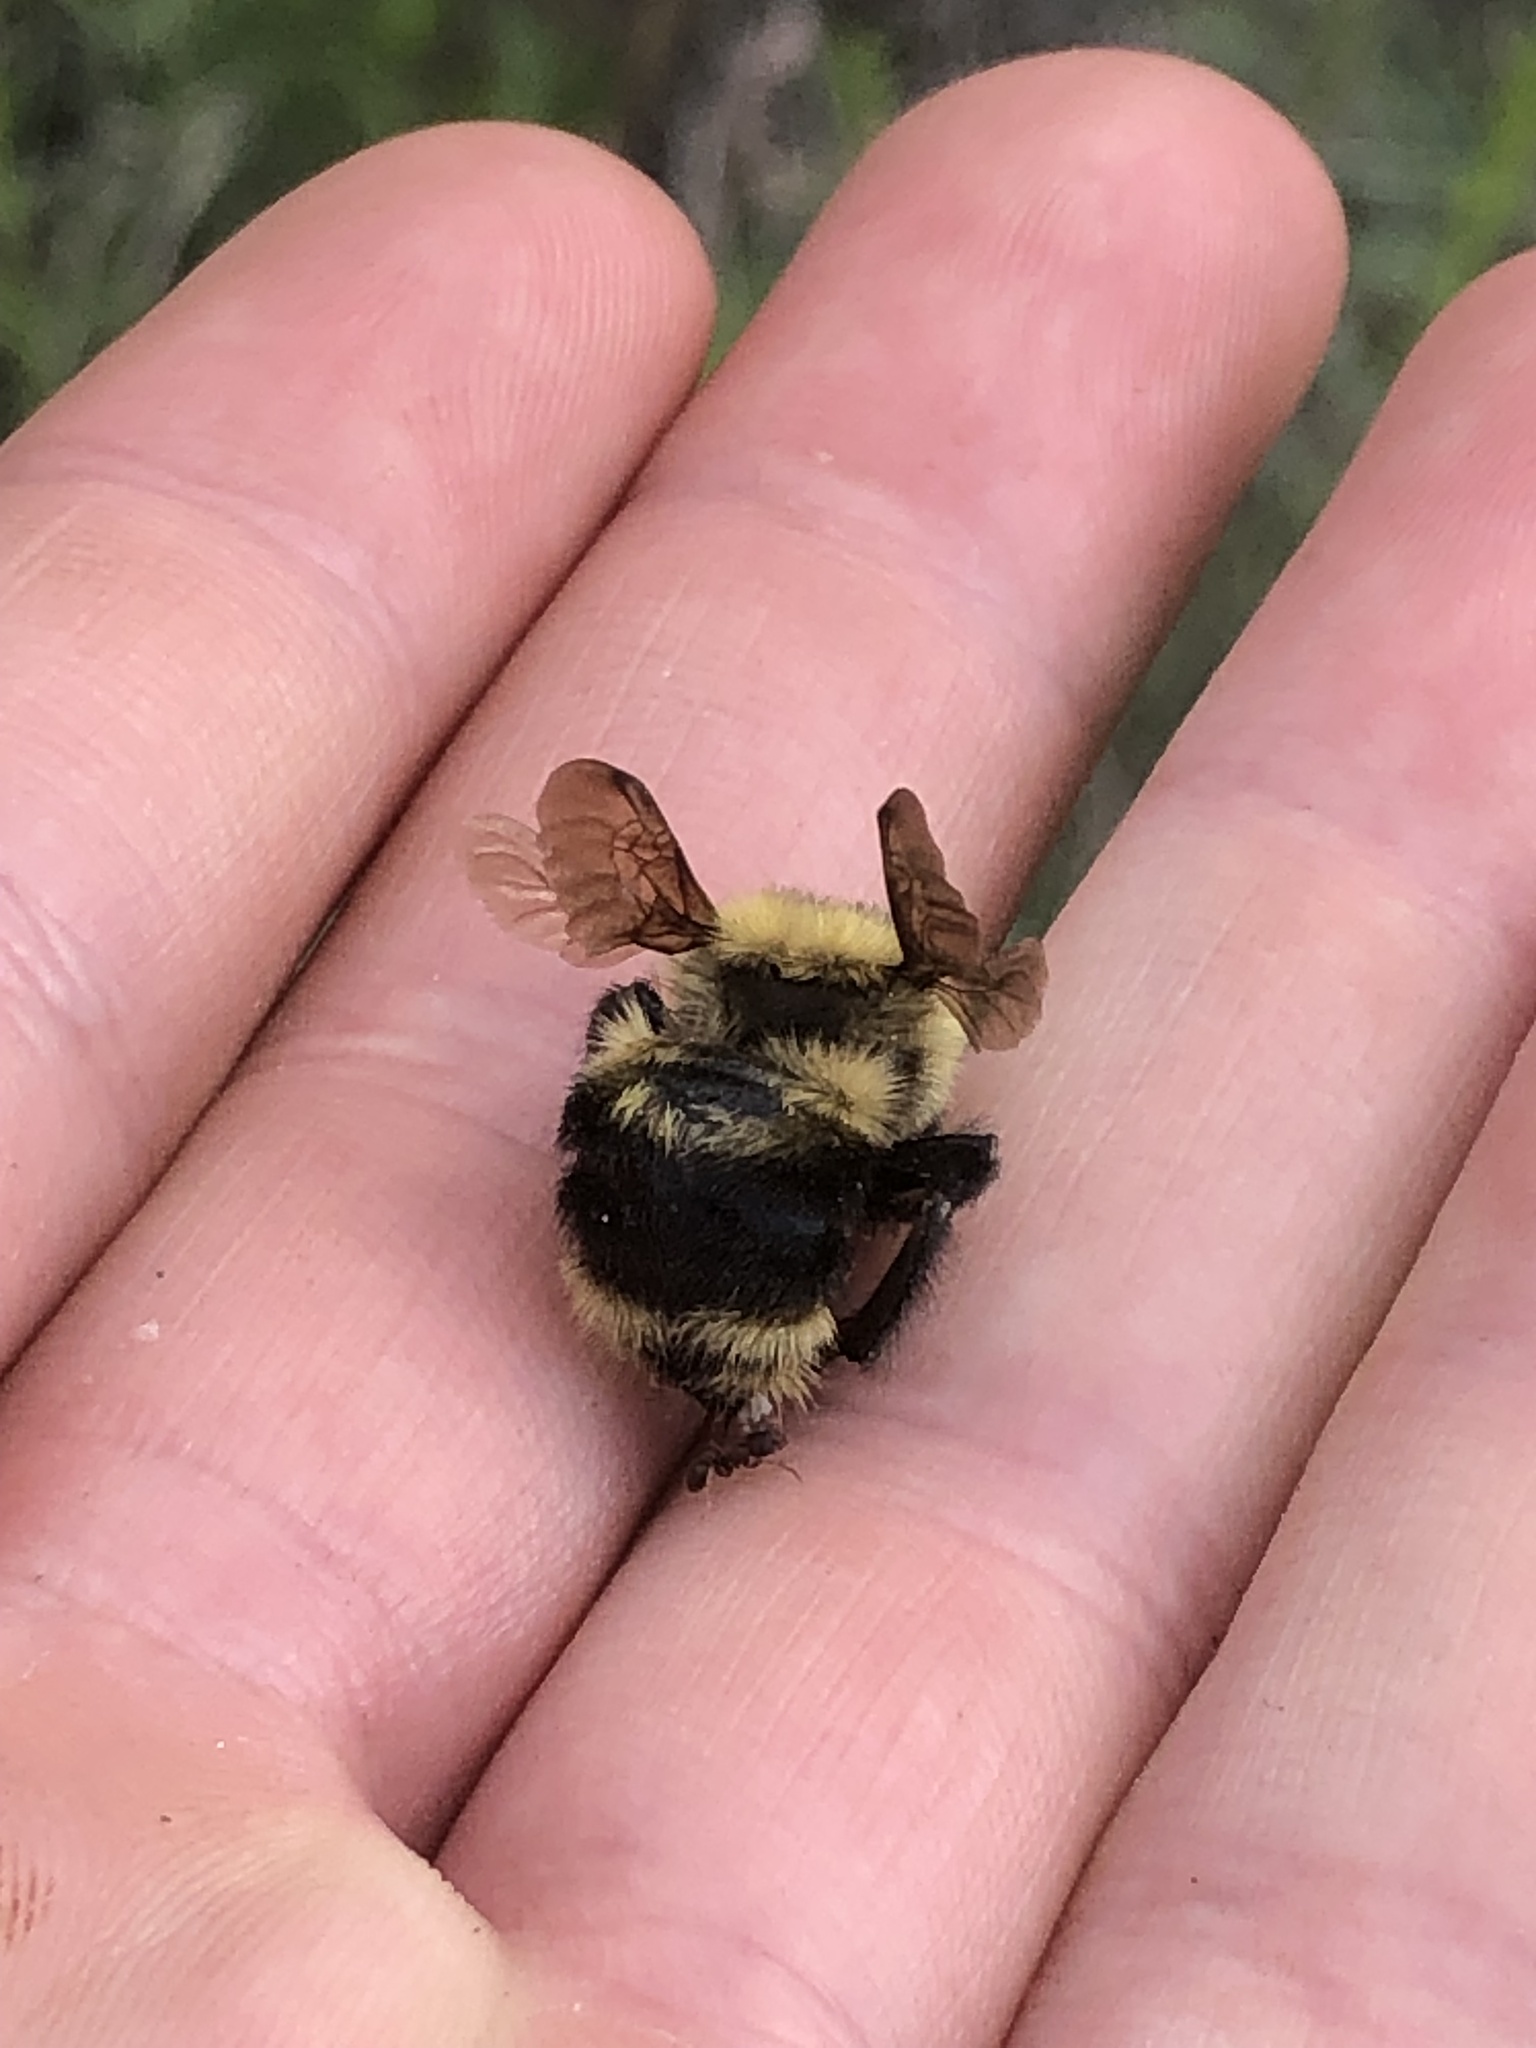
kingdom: Animalia
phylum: Arthropoda
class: Insecta
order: Hymenoptera
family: Apidae
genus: Bombus
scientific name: Bombus rufocinctus
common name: Red-belted bumble bee
